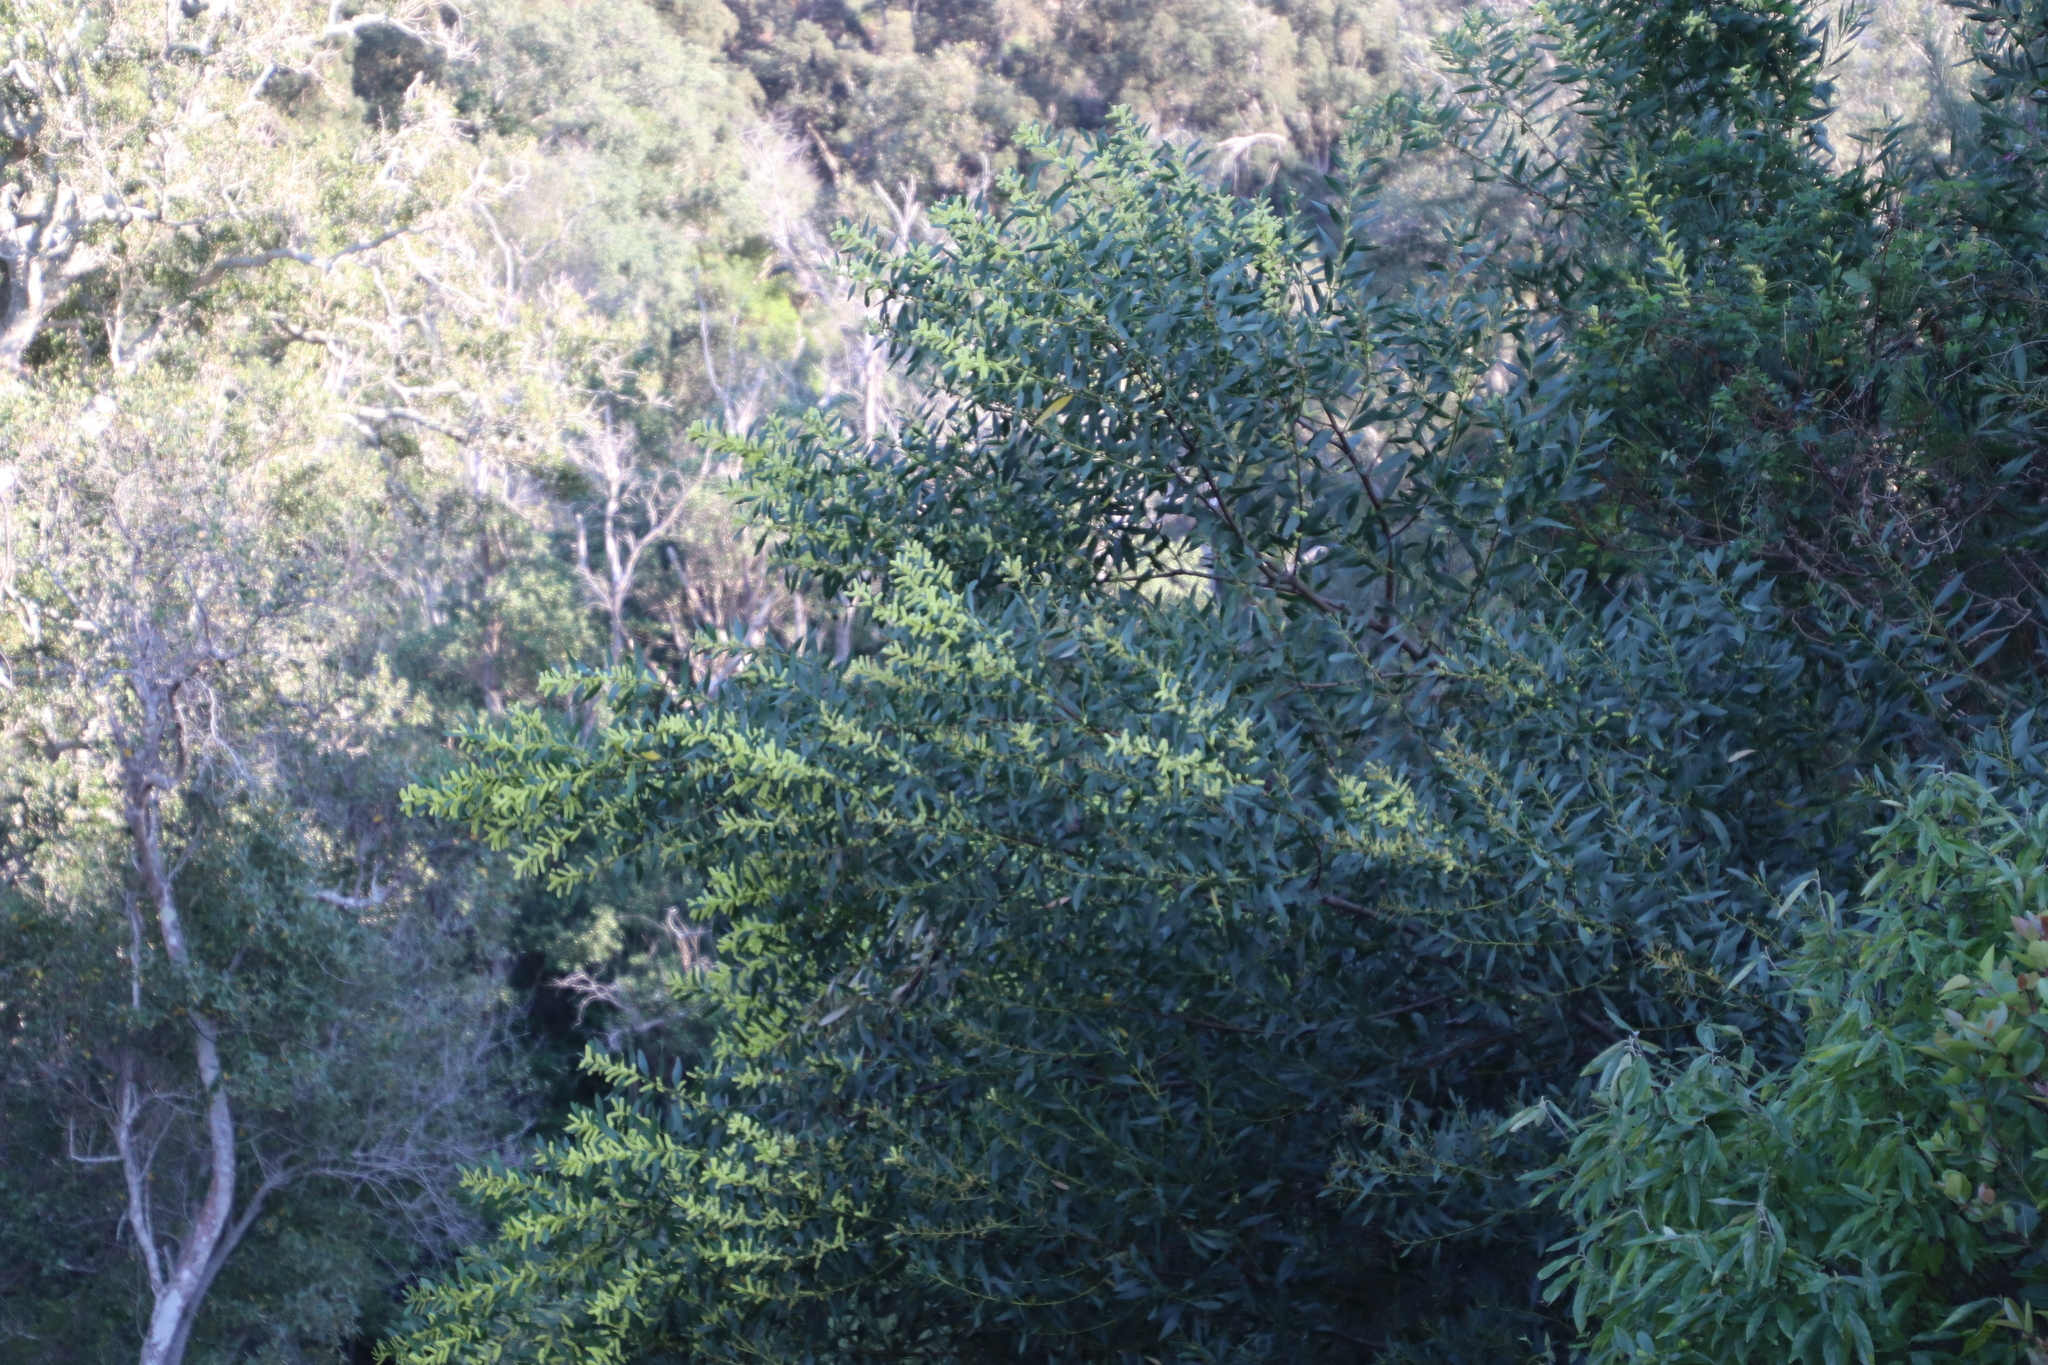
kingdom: Plantae
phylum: Tracheophyta
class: Magnoliopsida
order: Fabales
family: Fabaceae
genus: Acacia
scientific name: Acacia longifolia
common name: Sydney golden wattle
